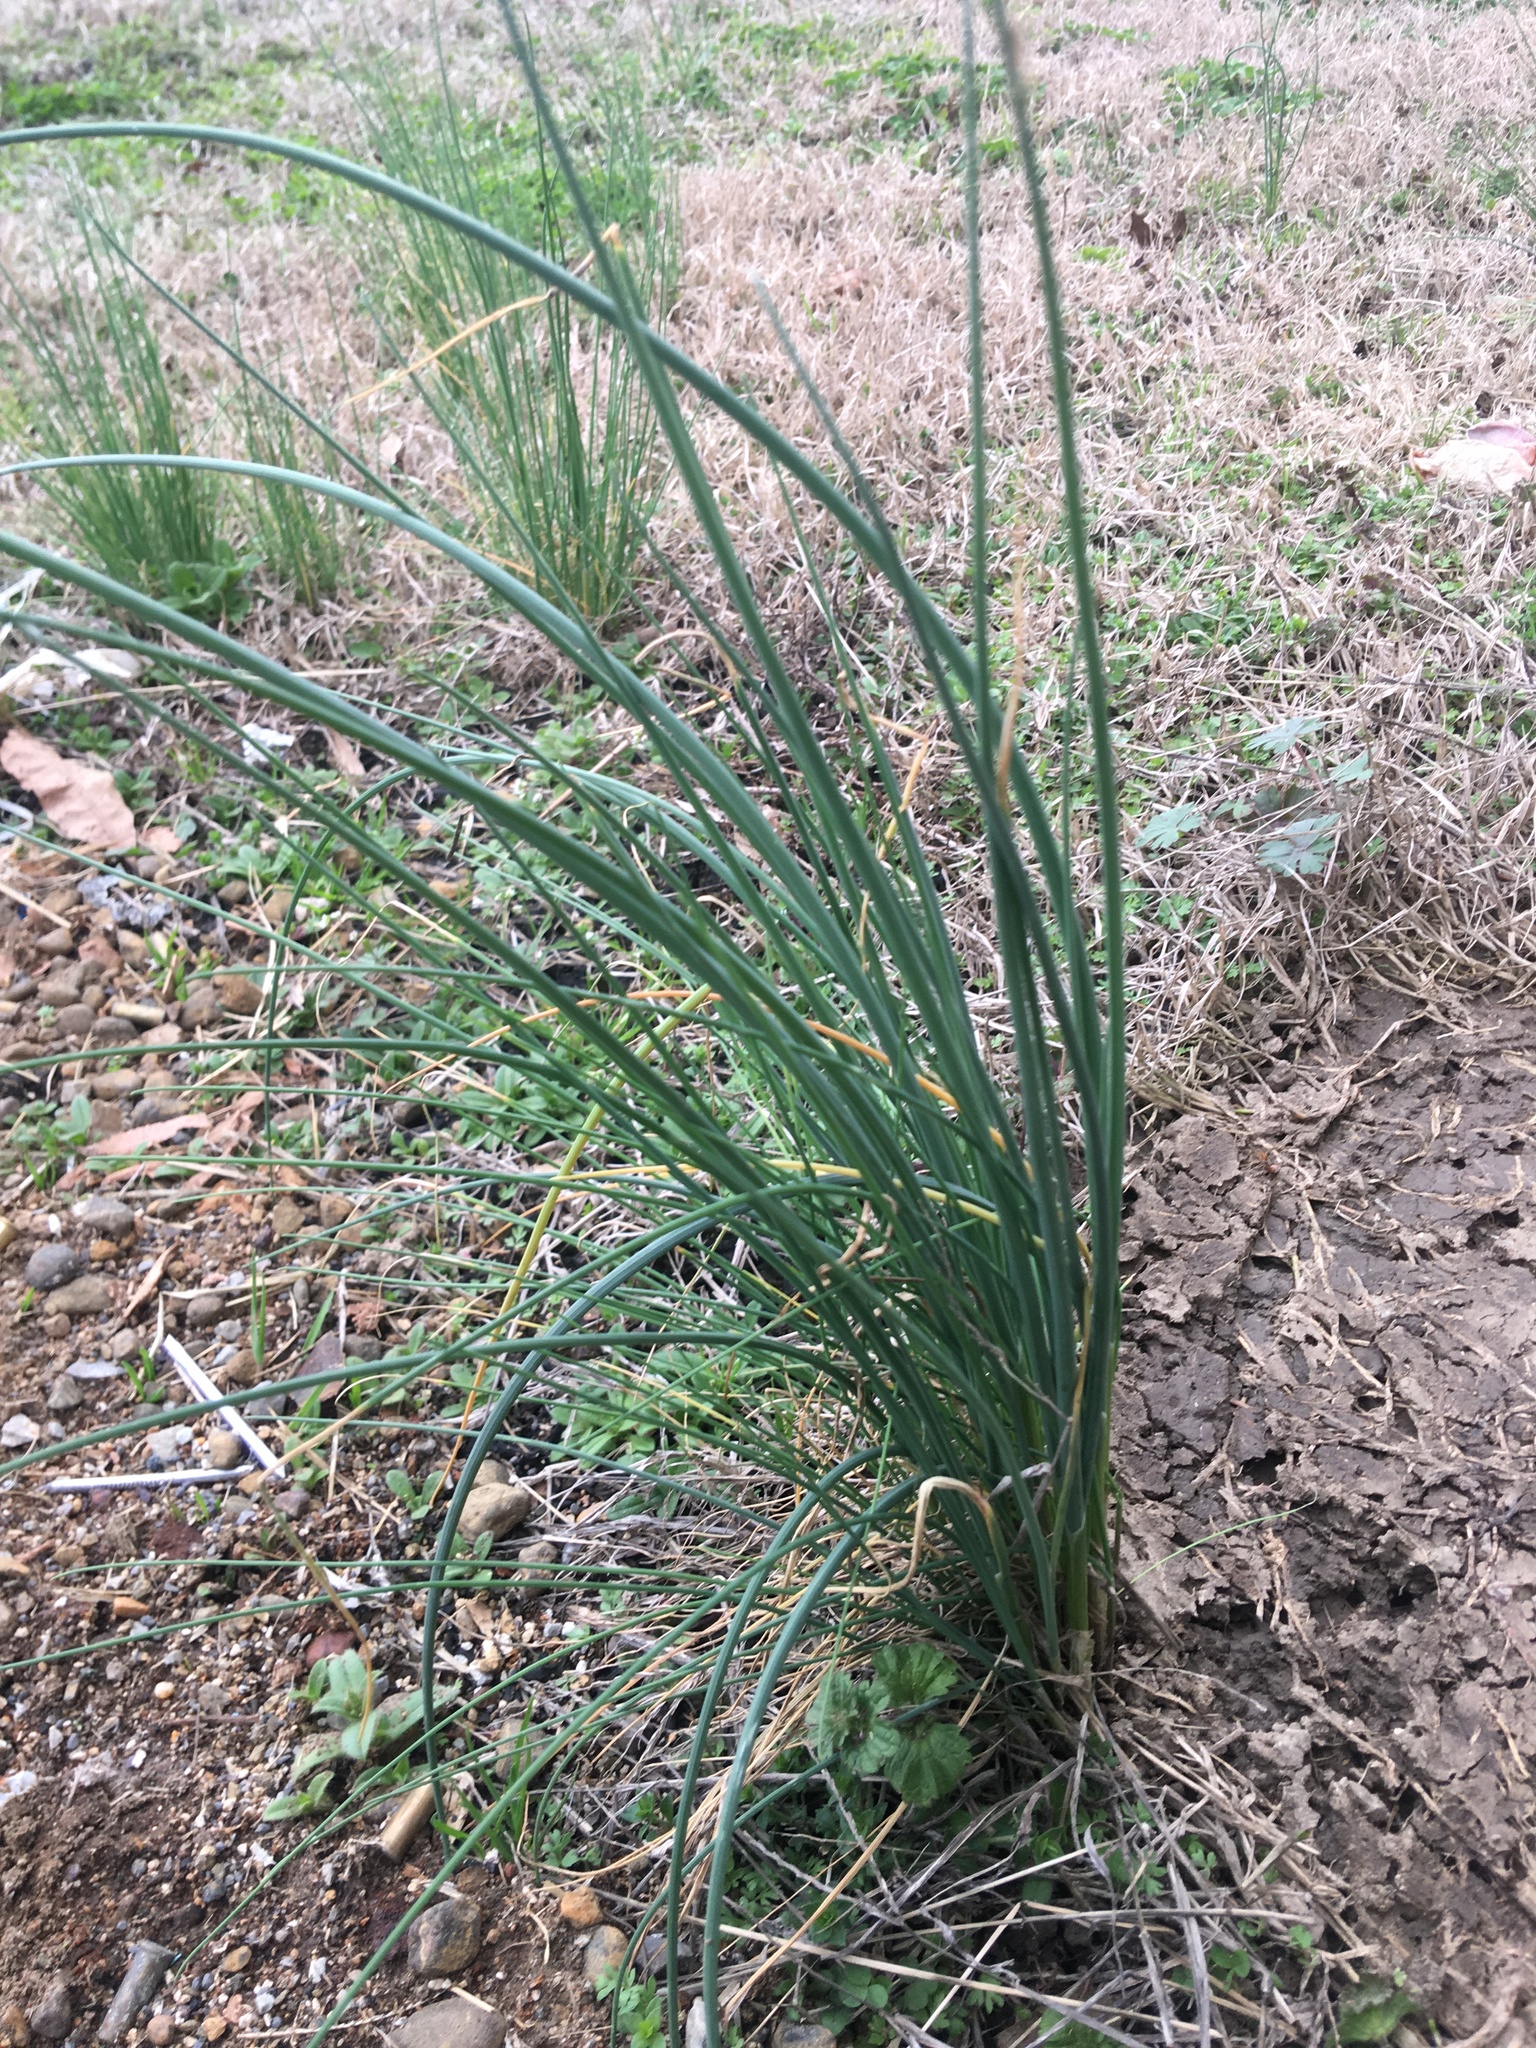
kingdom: Plantae
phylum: Tracheophyta
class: Liliopsida
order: Asparagales
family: Amaryllidaceae
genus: Allium
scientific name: Allium vineale
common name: Crow garlic
